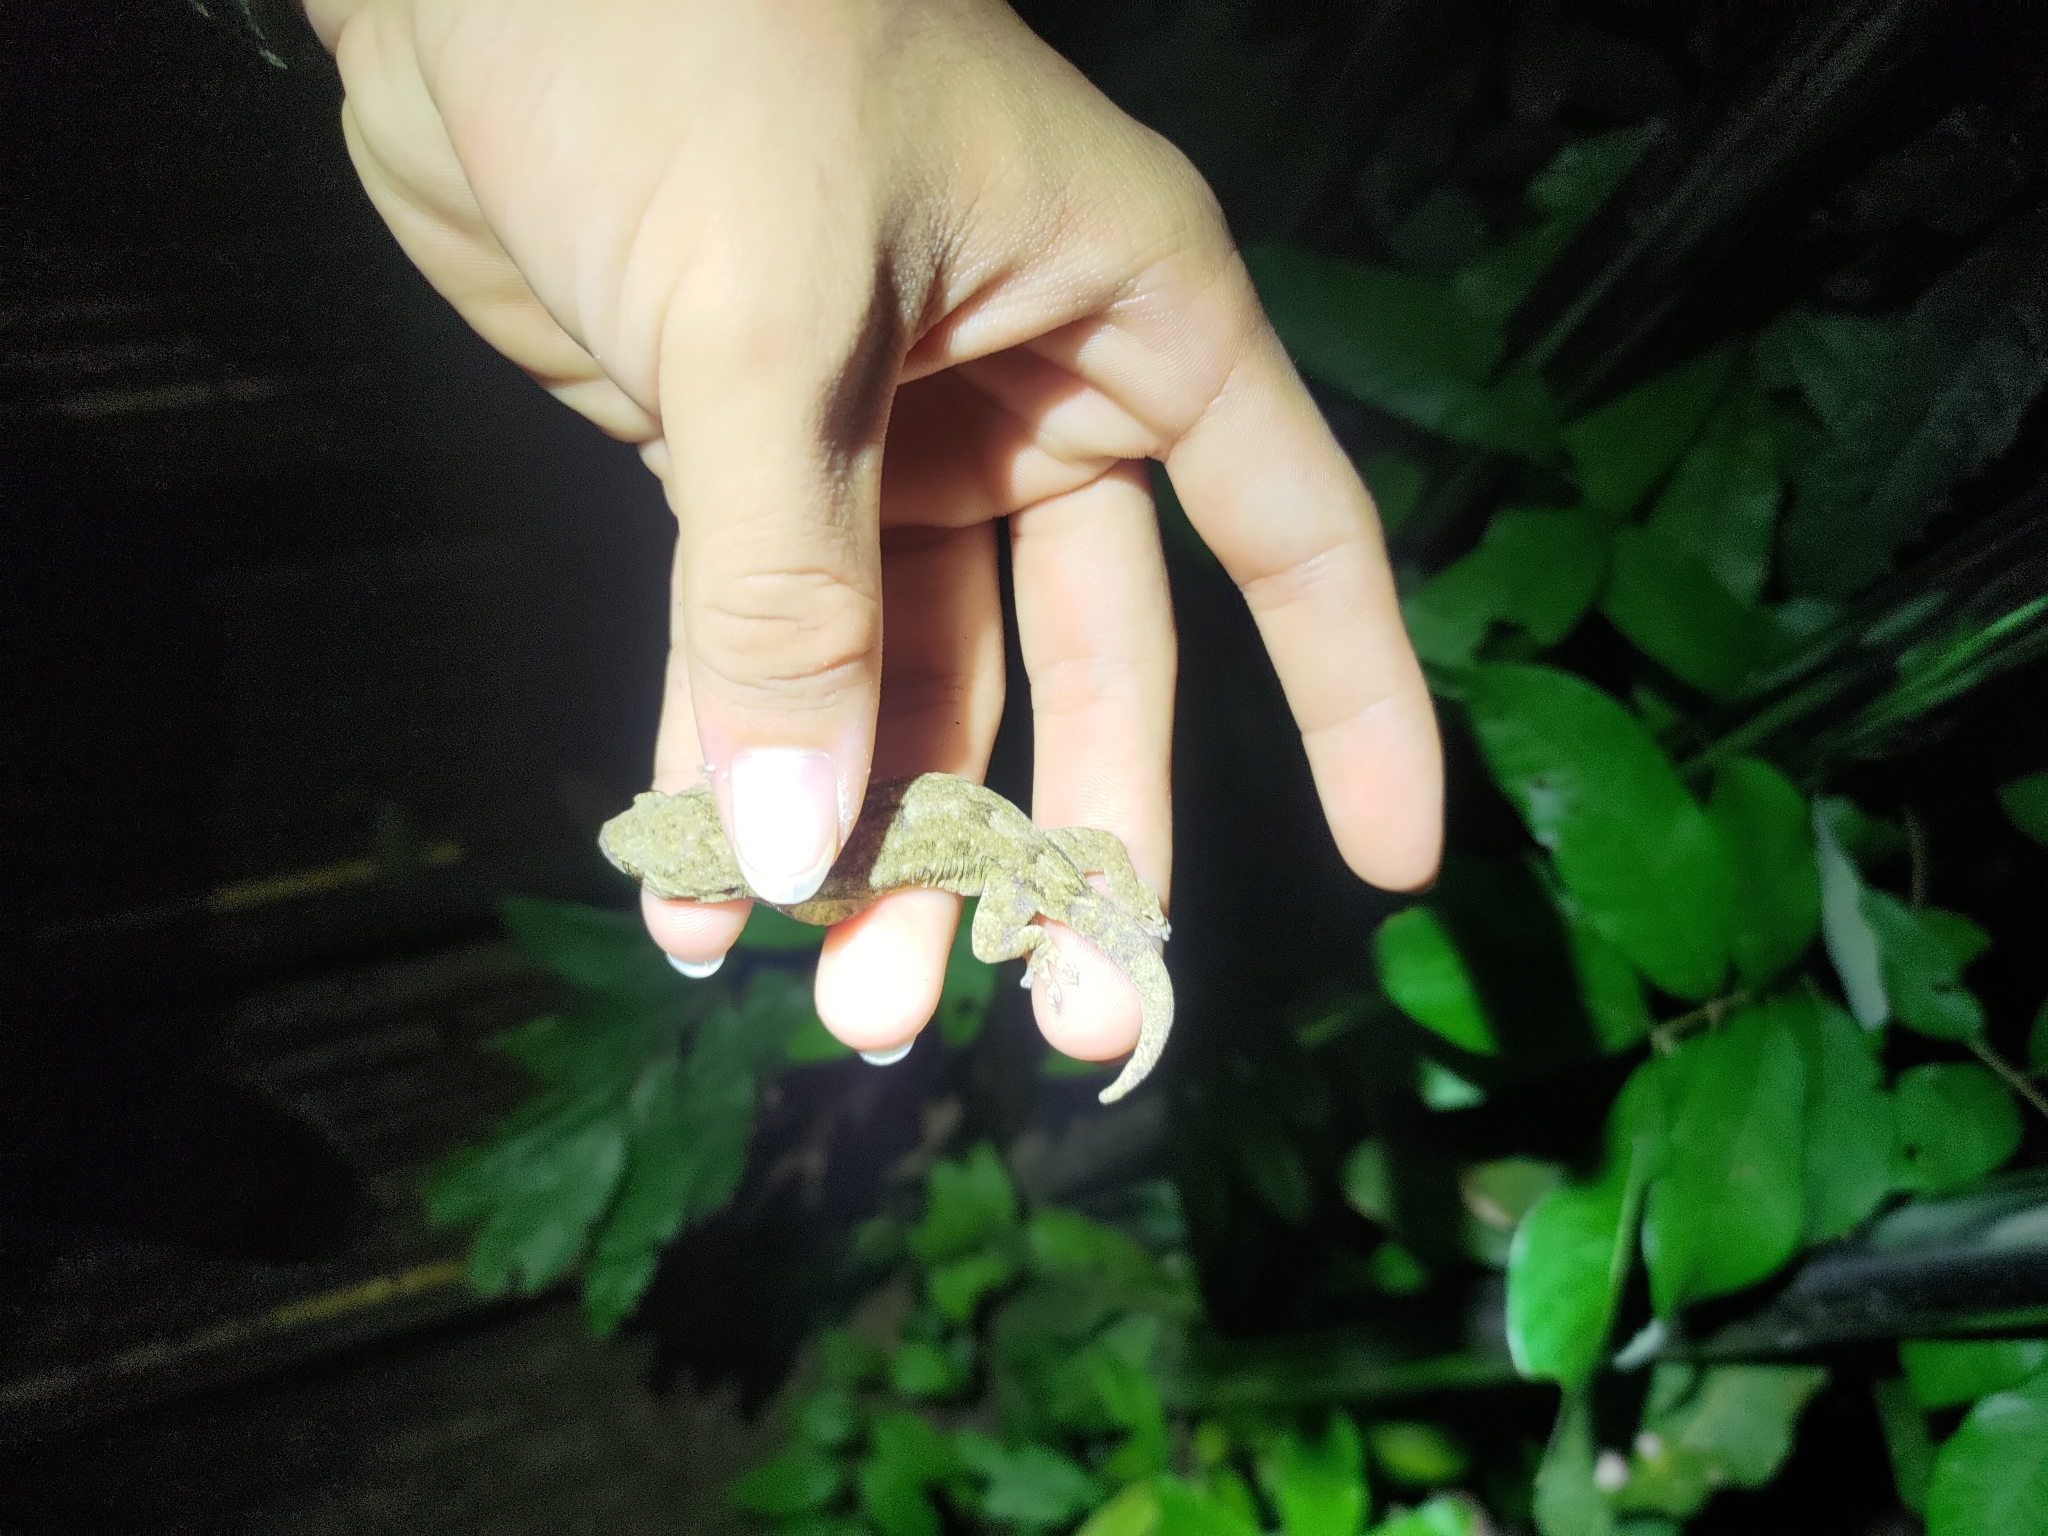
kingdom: Animalia
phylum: Chordata
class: Squamata
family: Gekkonidae
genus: Gekko
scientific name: Gekko hokouensis
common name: Kwangsi gecko
